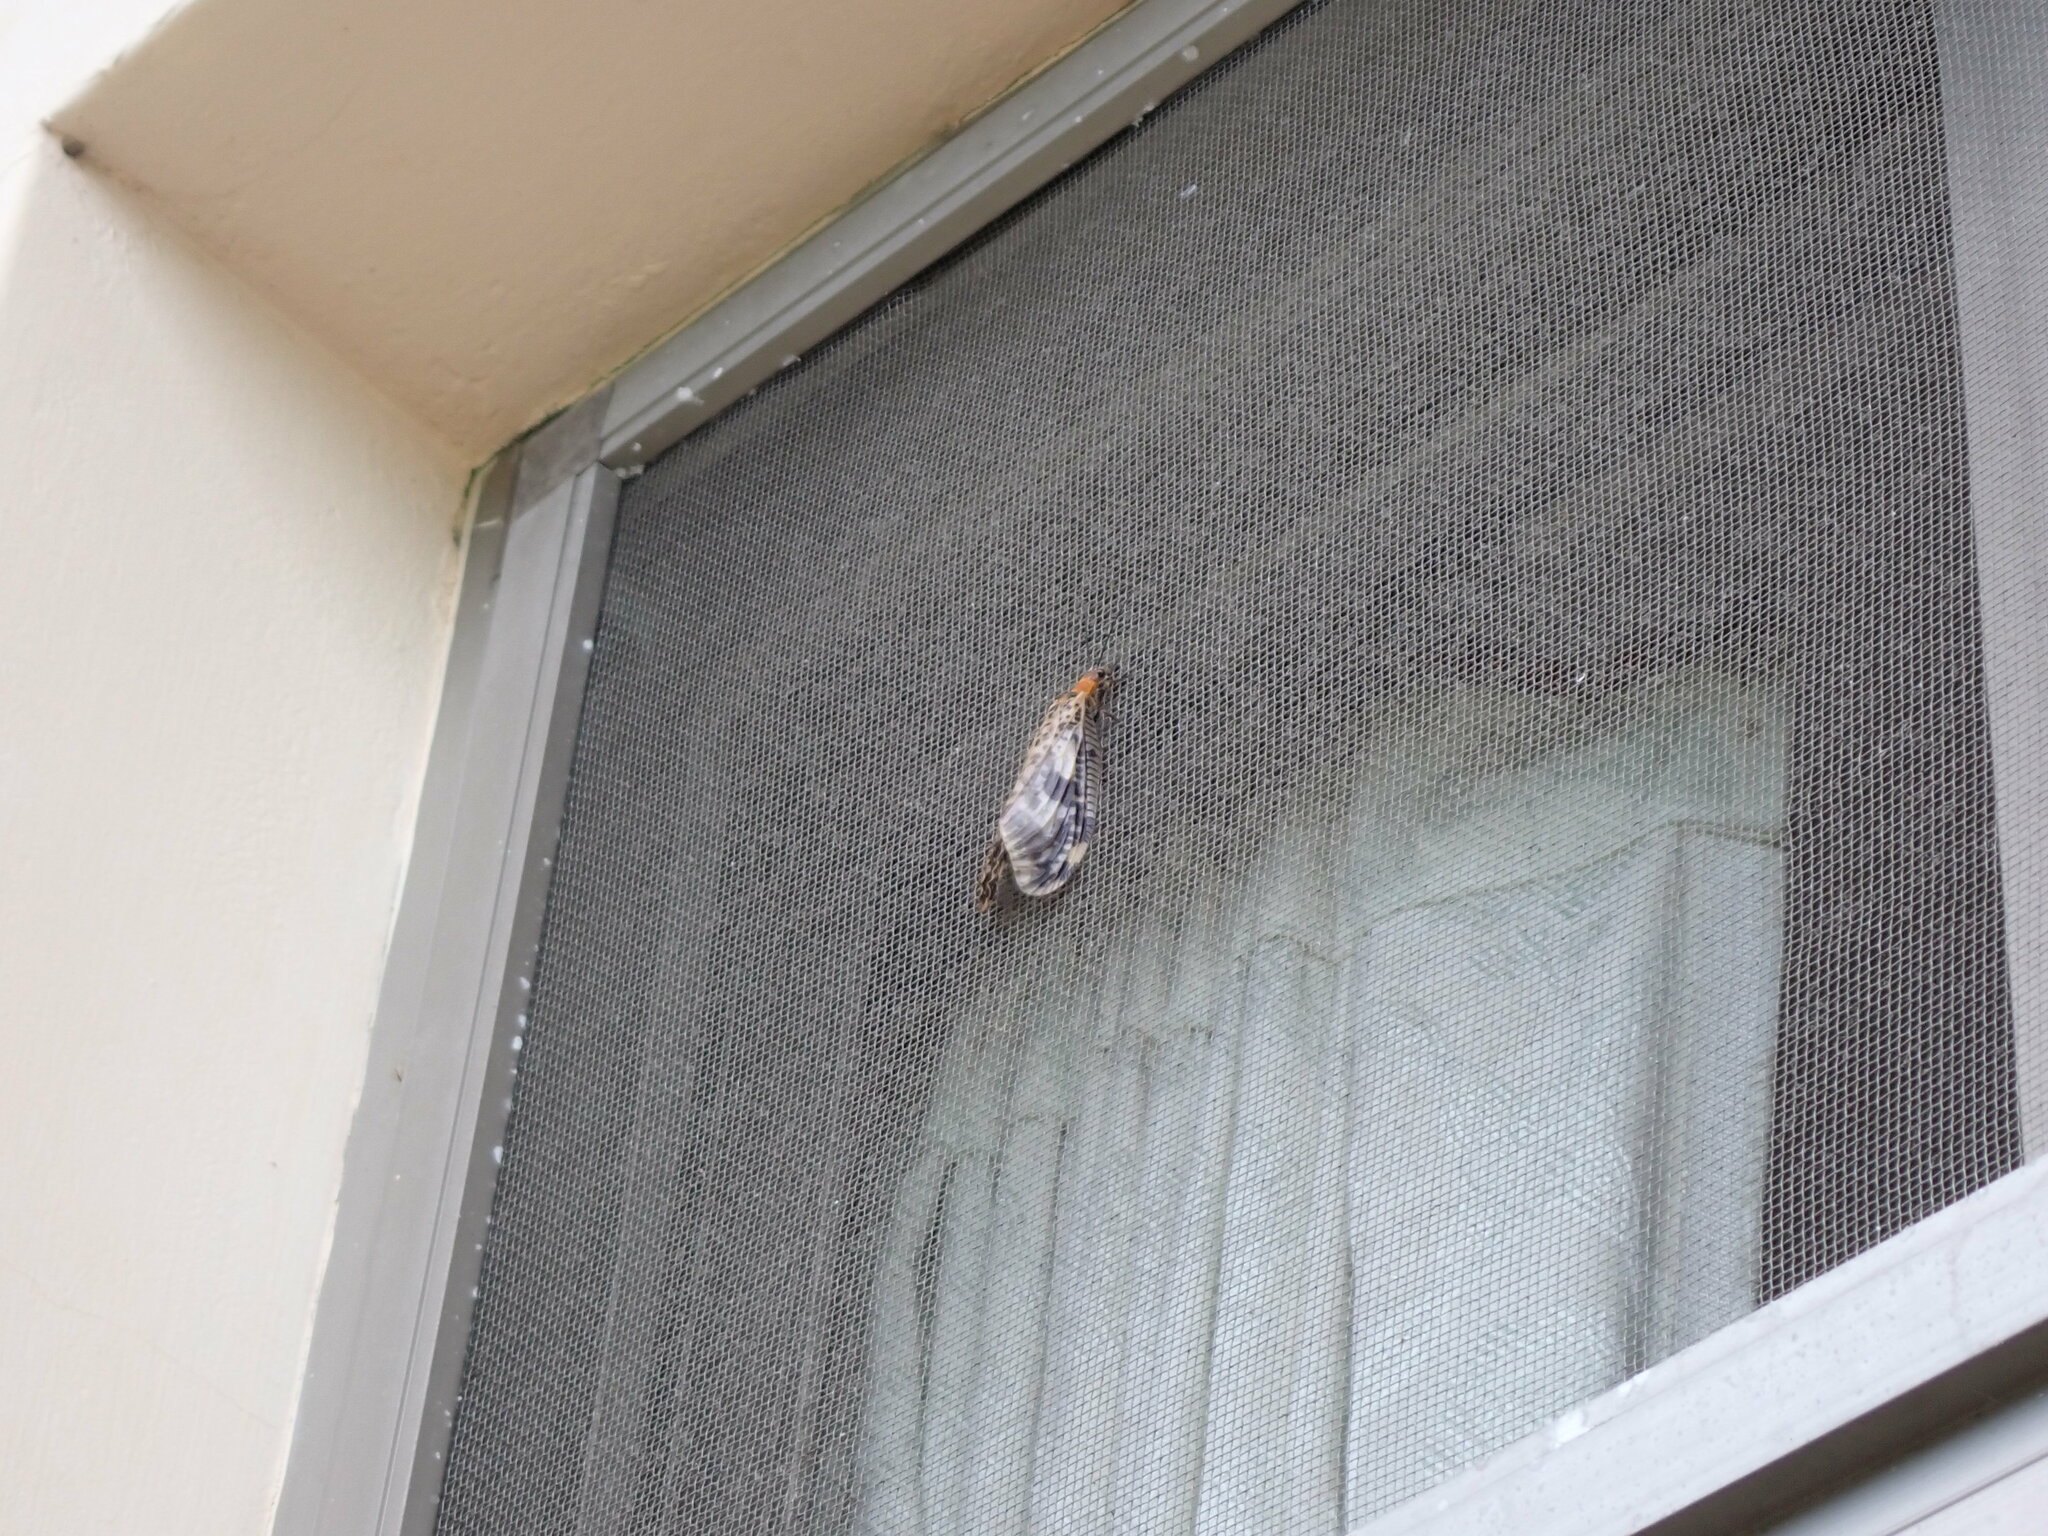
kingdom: Animalia
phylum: Arthropoda
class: Insecta
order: Megaloptera
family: Corydalidae
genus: Neochauliodes
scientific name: Neochauliodes formosanus
